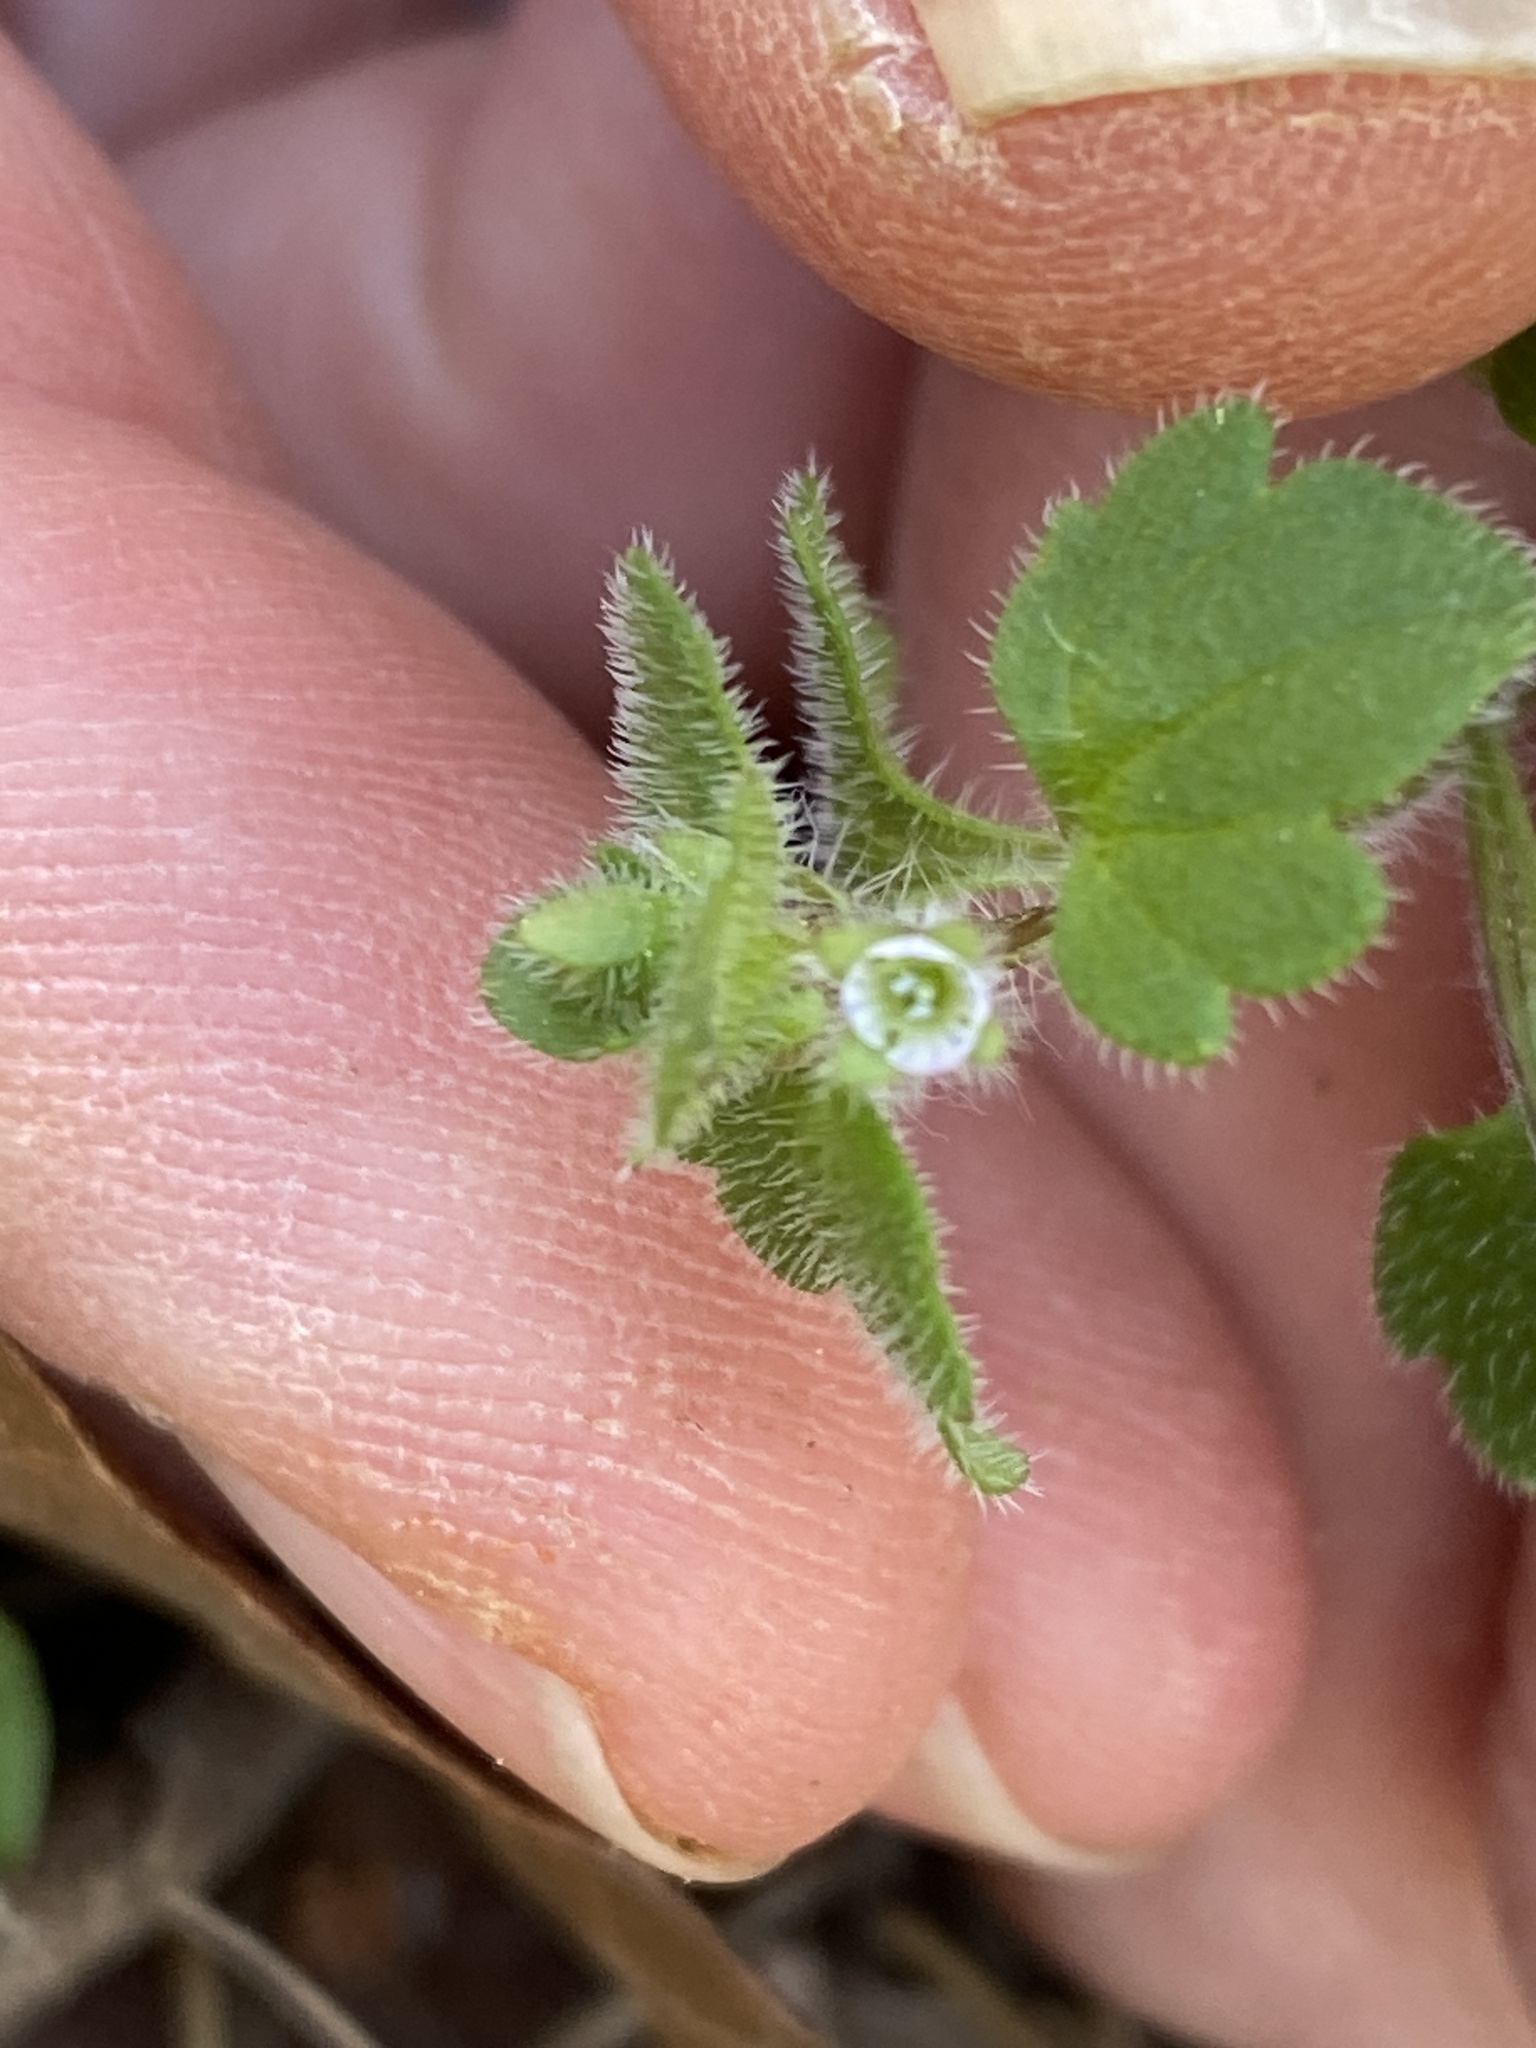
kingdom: Plantae
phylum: Tracheophyta
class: Magnoliopsida
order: Lamiales
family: Plantaginaceae
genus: Veronica
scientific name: Veronica hederifolia
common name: Ivy-leaved speedwell
